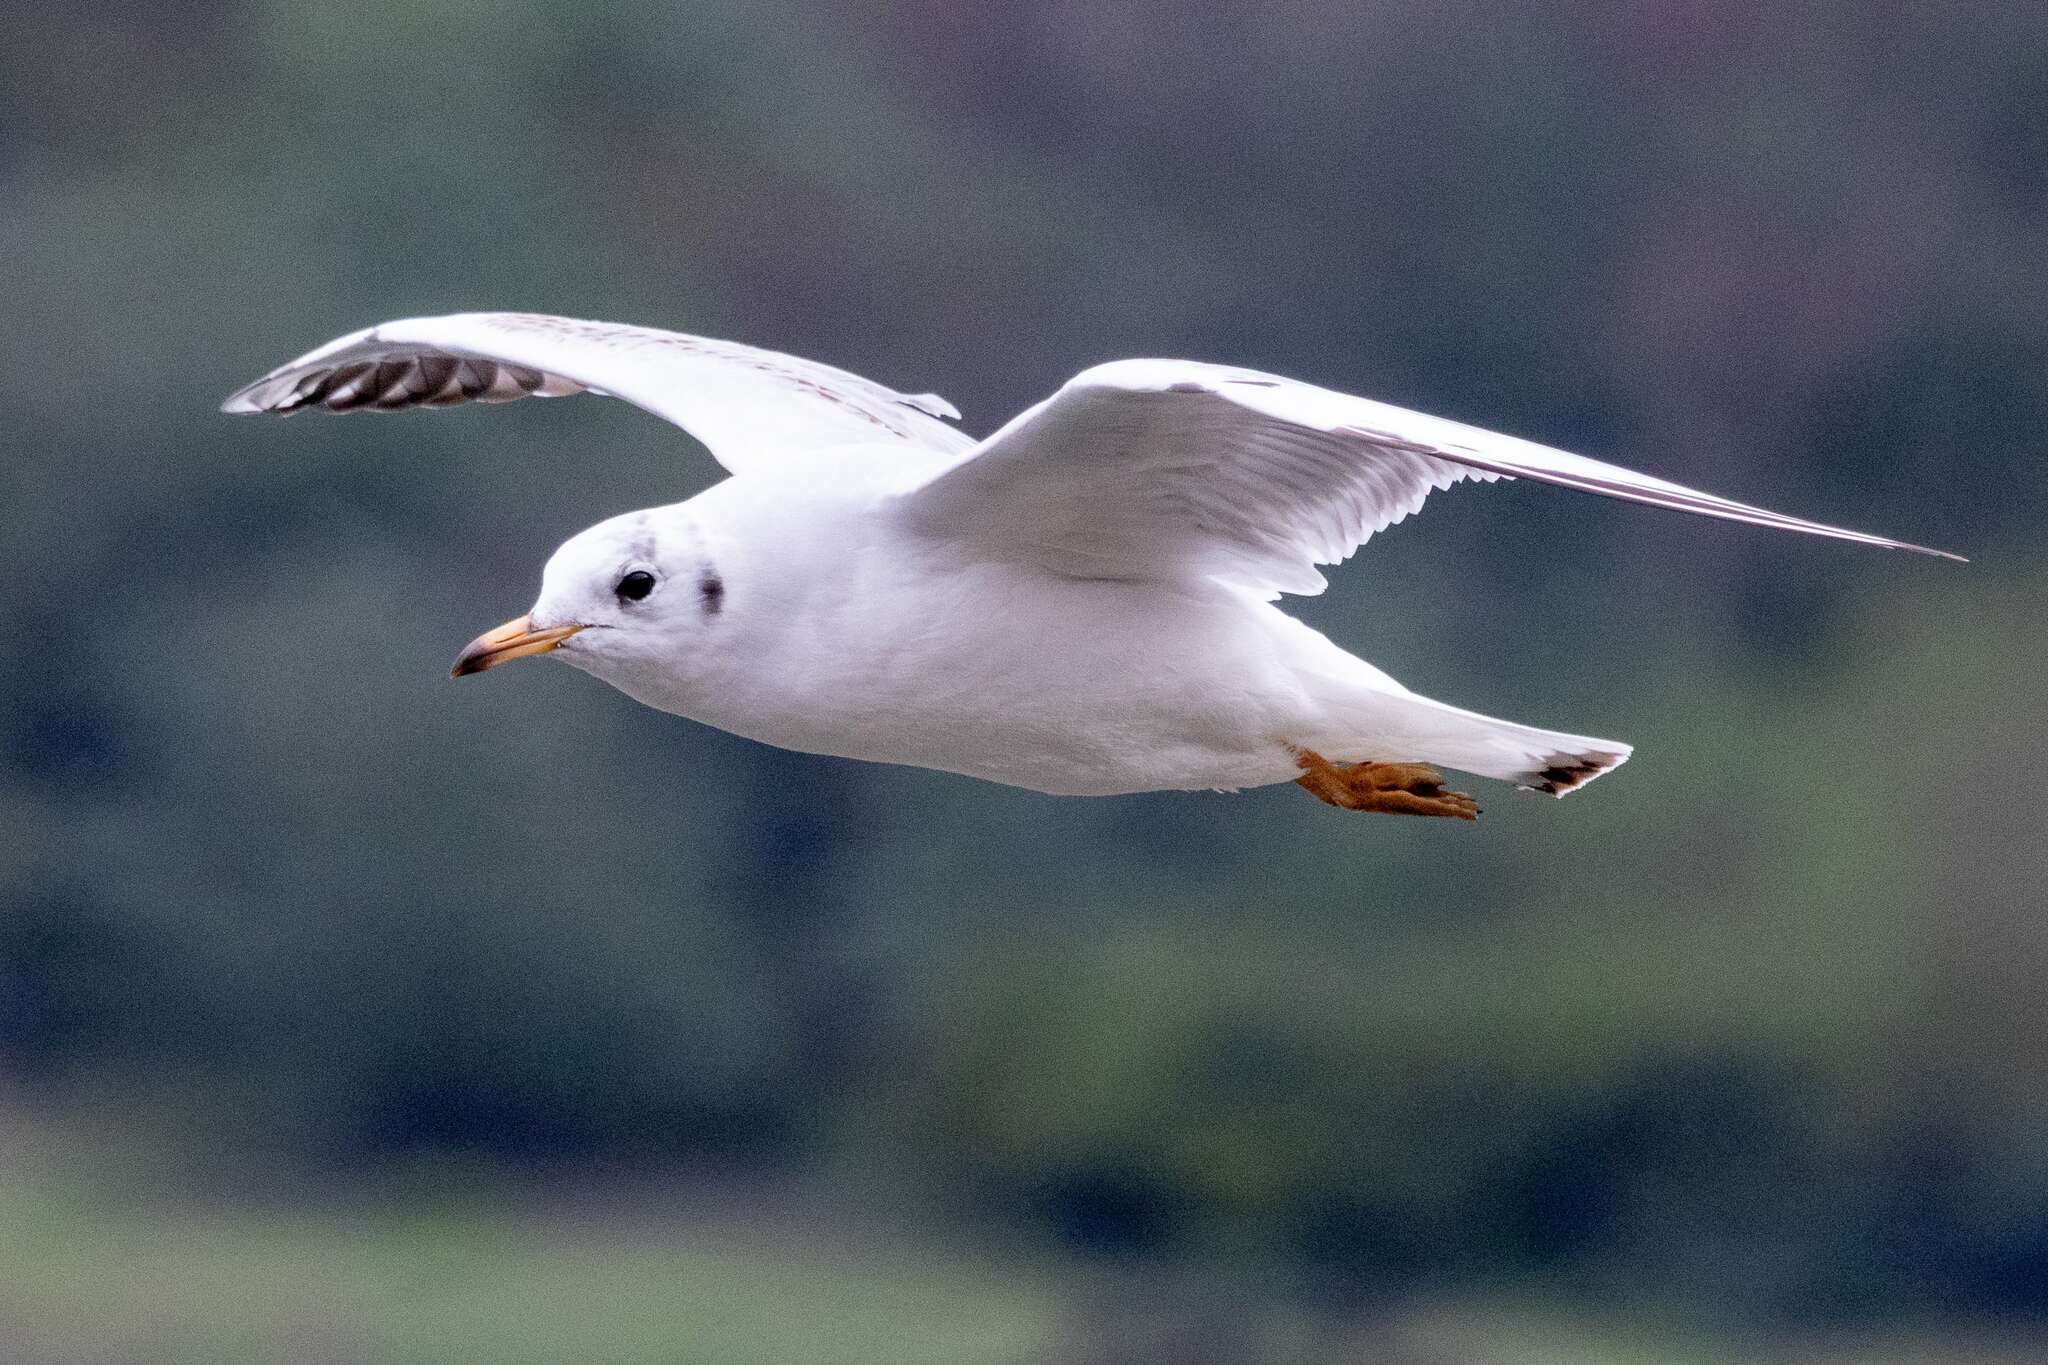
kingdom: Animalia
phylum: Chordata
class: Aves
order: Charadriiformes
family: Laridae
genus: Chroicocephalus
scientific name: Chroicocephalus ridibundus
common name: Black-headed gull
